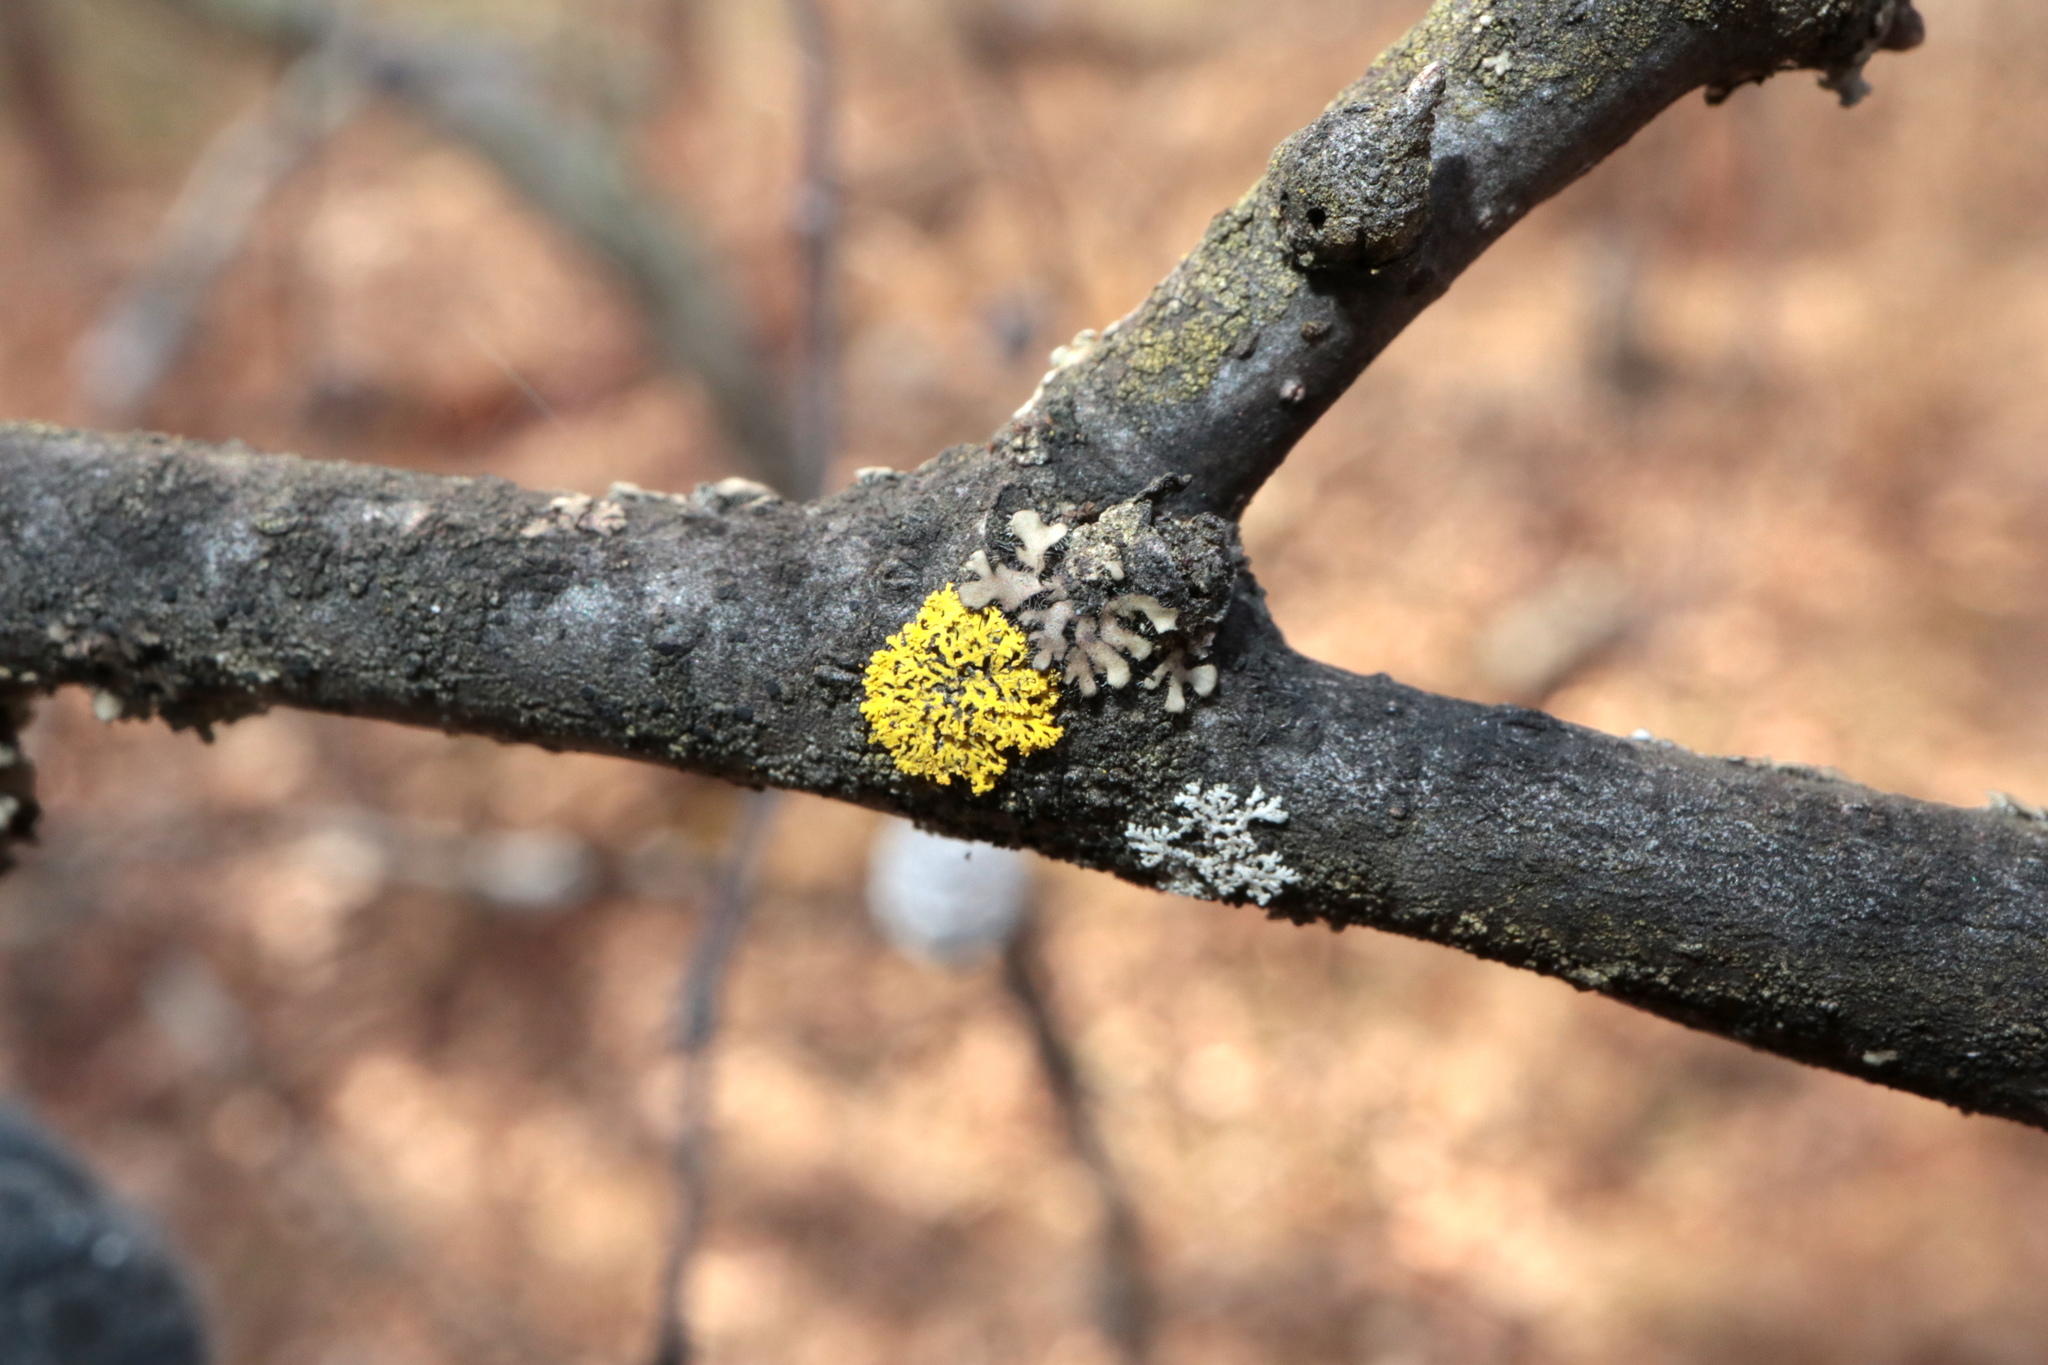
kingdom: Fungi
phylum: Ascomycota
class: Candelariomycetes
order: Candelariales
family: Candelariaceae
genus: Candelaria
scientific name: Candelaria concolor
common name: Candleflame lichen
